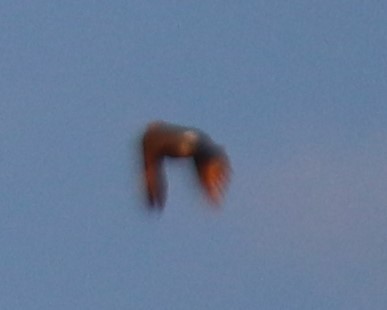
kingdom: Animalia
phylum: Chordata
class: Aves
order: Piciformes
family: Picidae
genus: Colaptes
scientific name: Colaptes auratus
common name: Northern flicker
